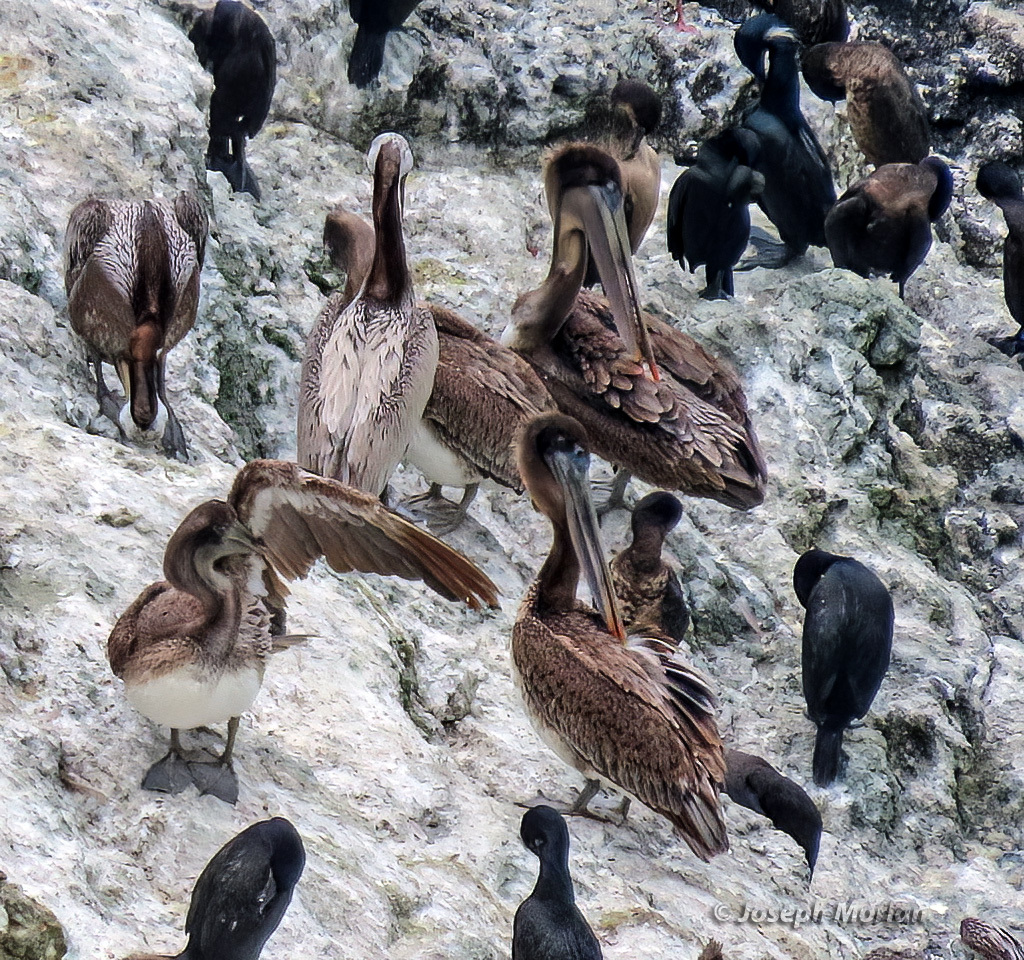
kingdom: Animalia
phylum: Chordata
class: Aves
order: Pelecaniformes
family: Pelecanidae
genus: Pelecanus
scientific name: Pelecanus occidentalis
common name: Brown pelican
